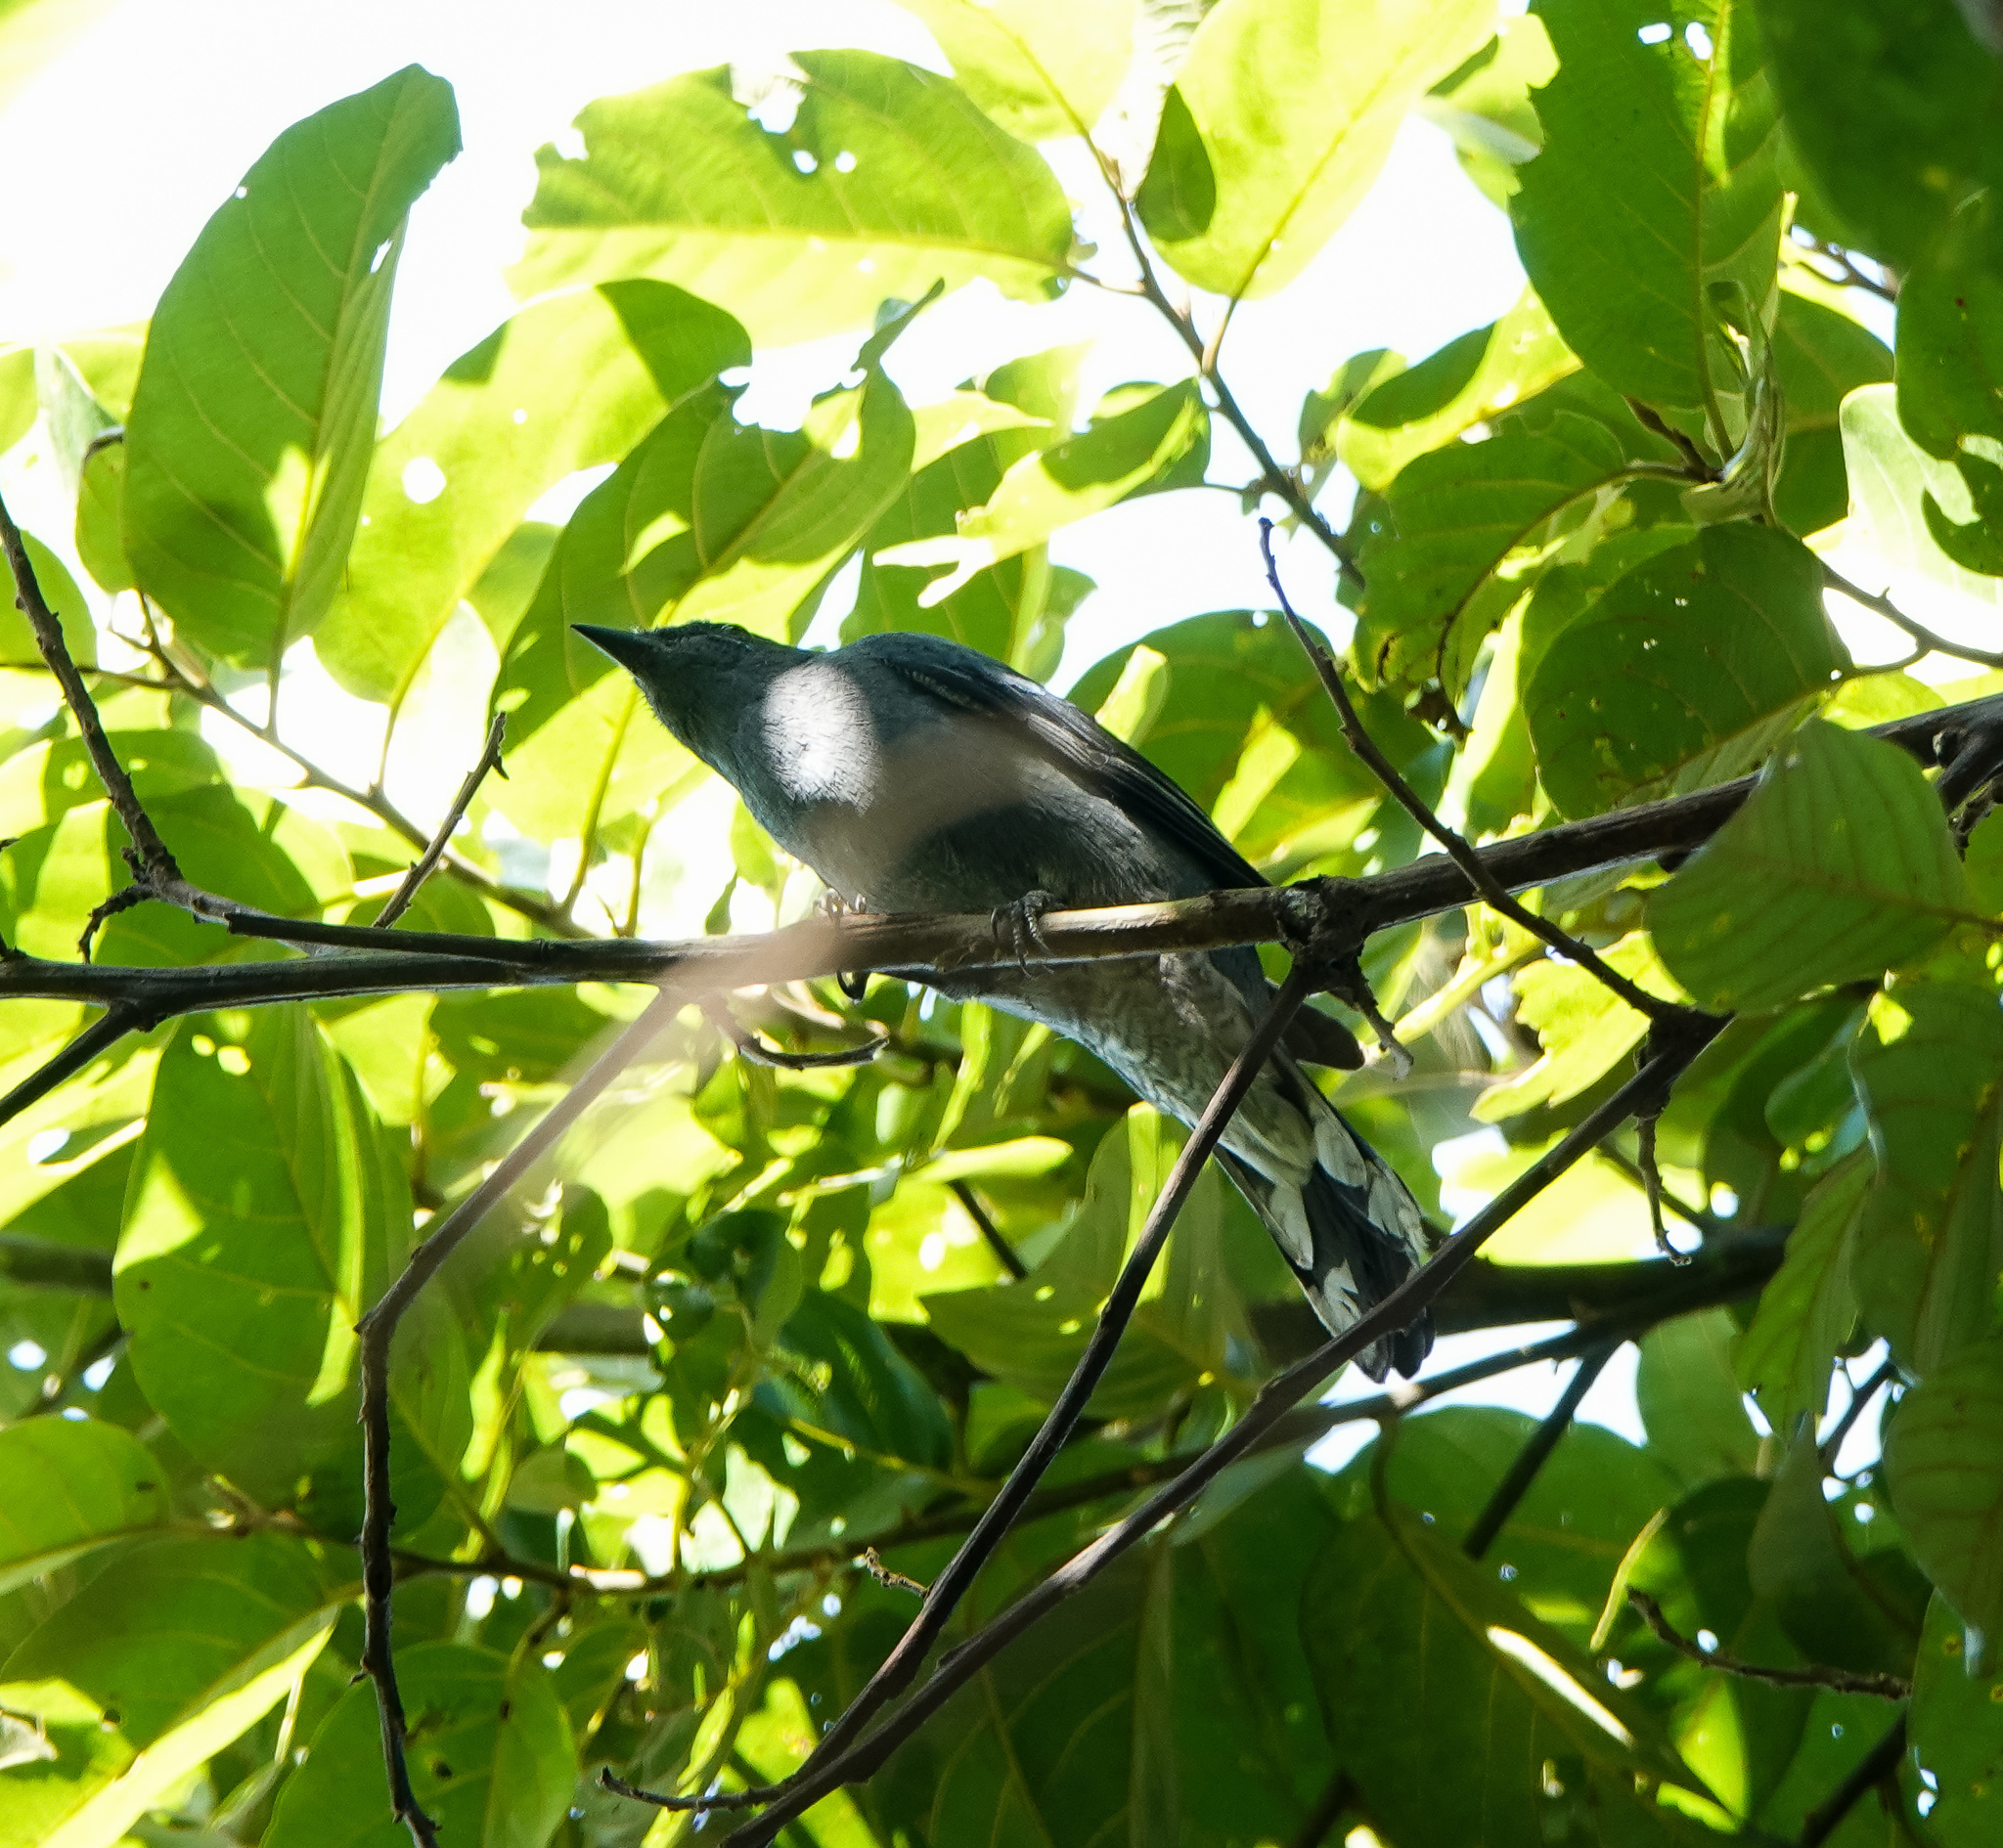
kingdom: Animalia
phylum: Chordata
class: Aves
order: Passeriformes
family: Campephagidae
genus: Coracina
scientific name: Coracina melaschistos
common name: Black-winged cuckooshrike
